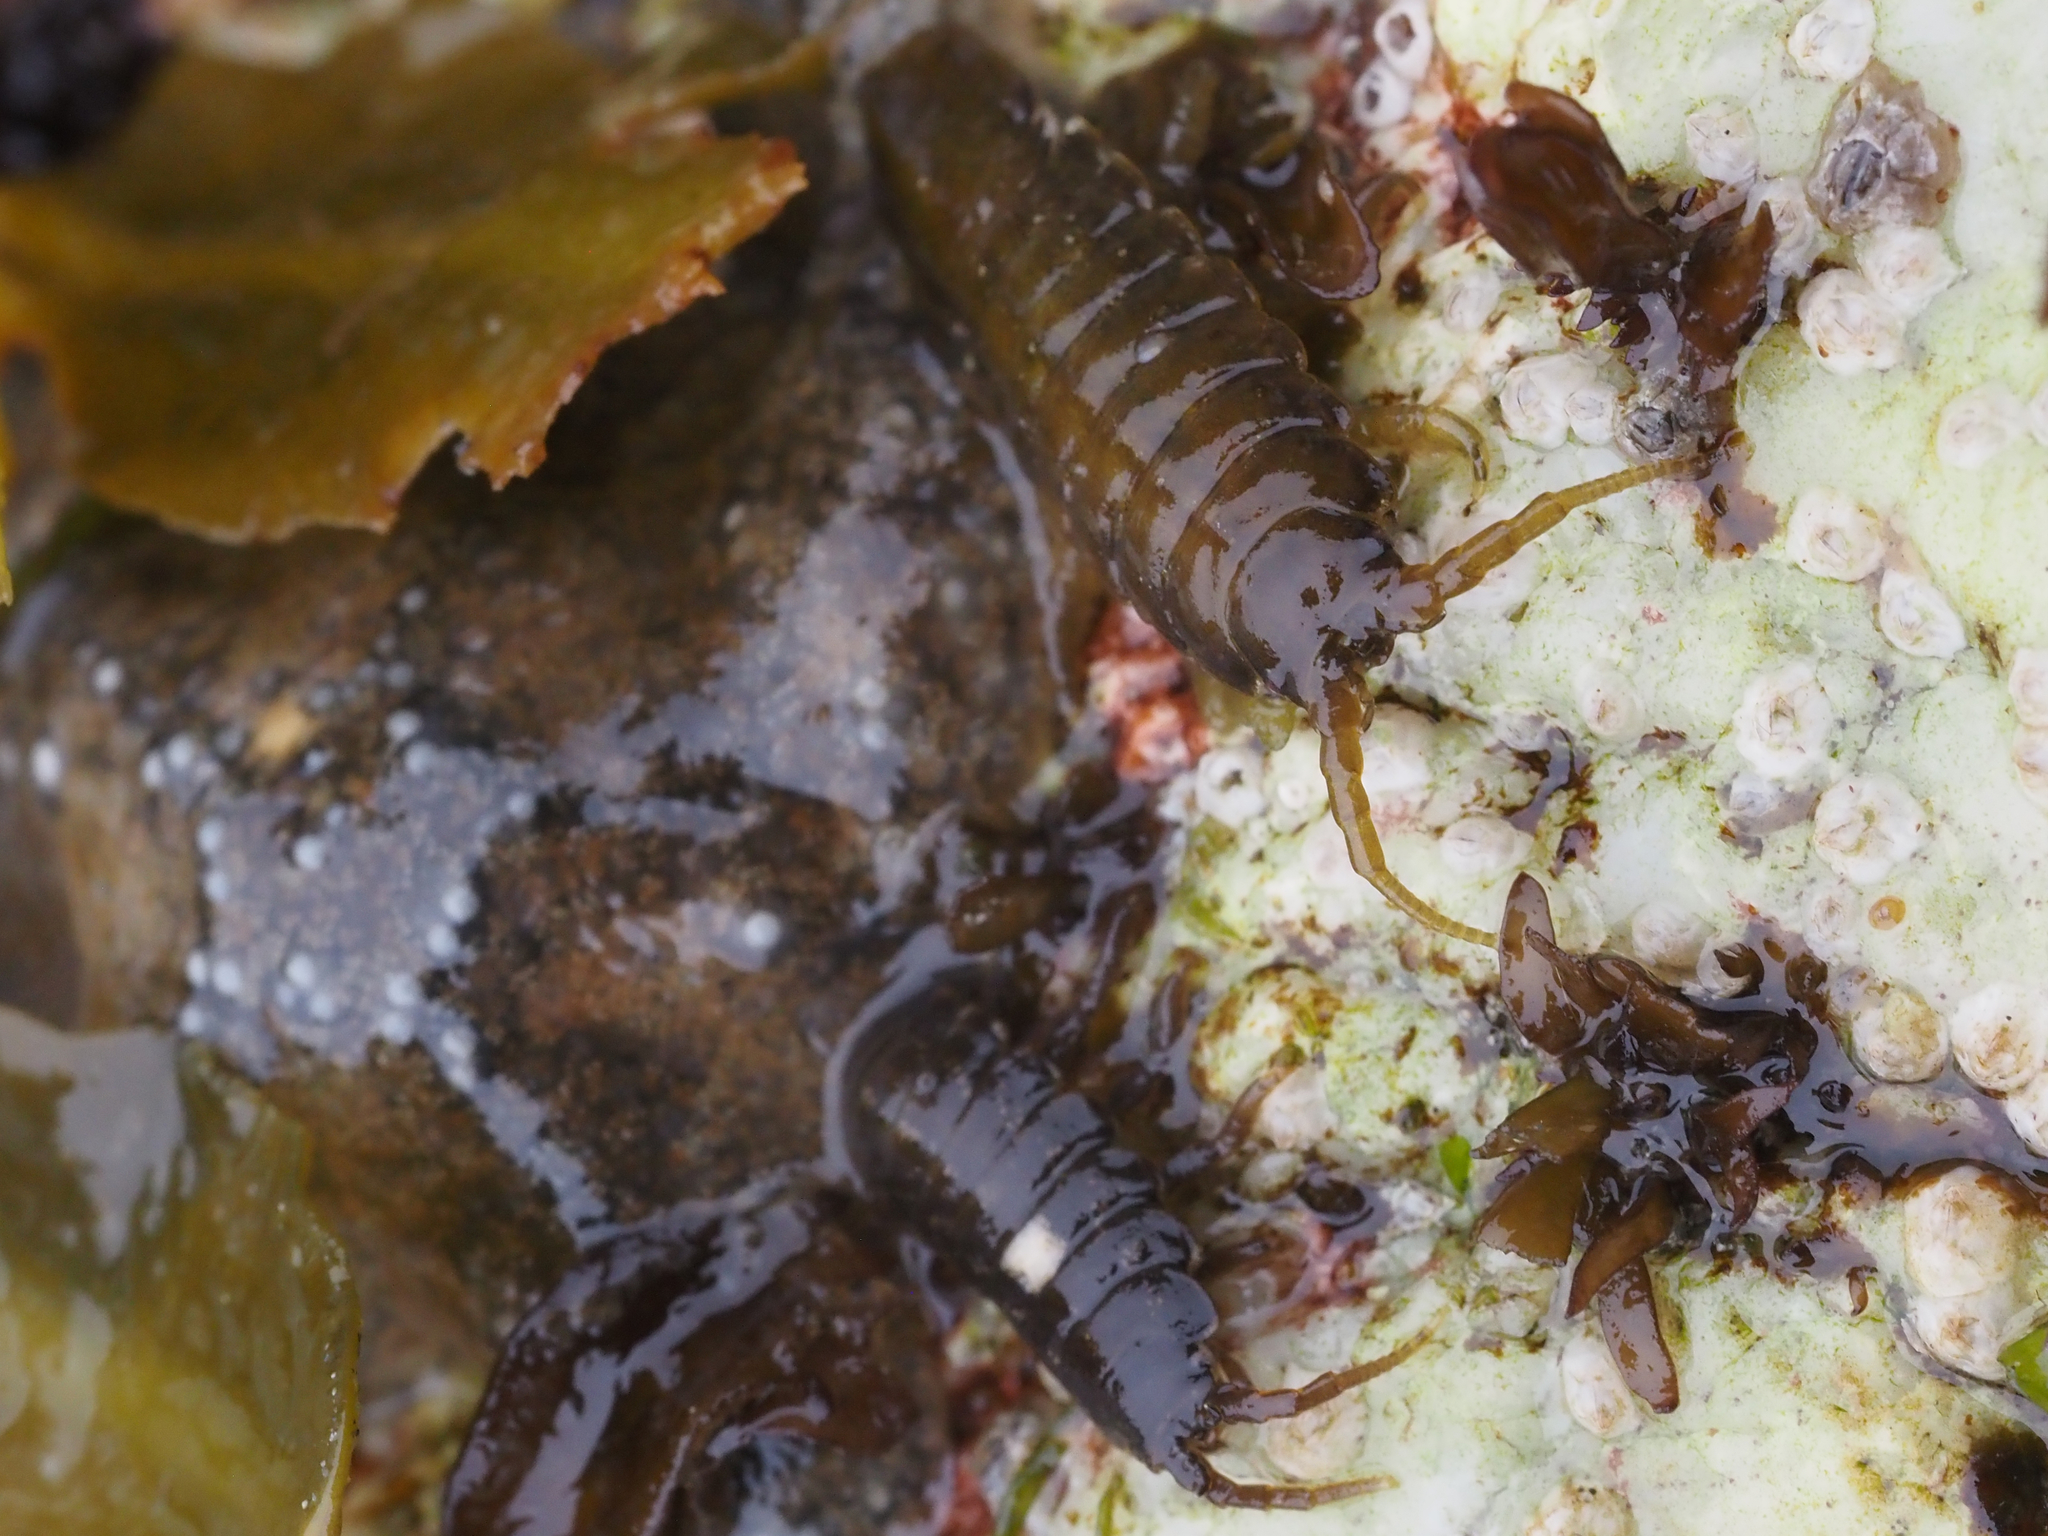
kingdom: Animalia
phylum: Arthropoda
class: Malacostraca
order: Isopoda
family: Idoteidae
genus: Pentidotea
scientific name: Pentidotea wosnesenskii
